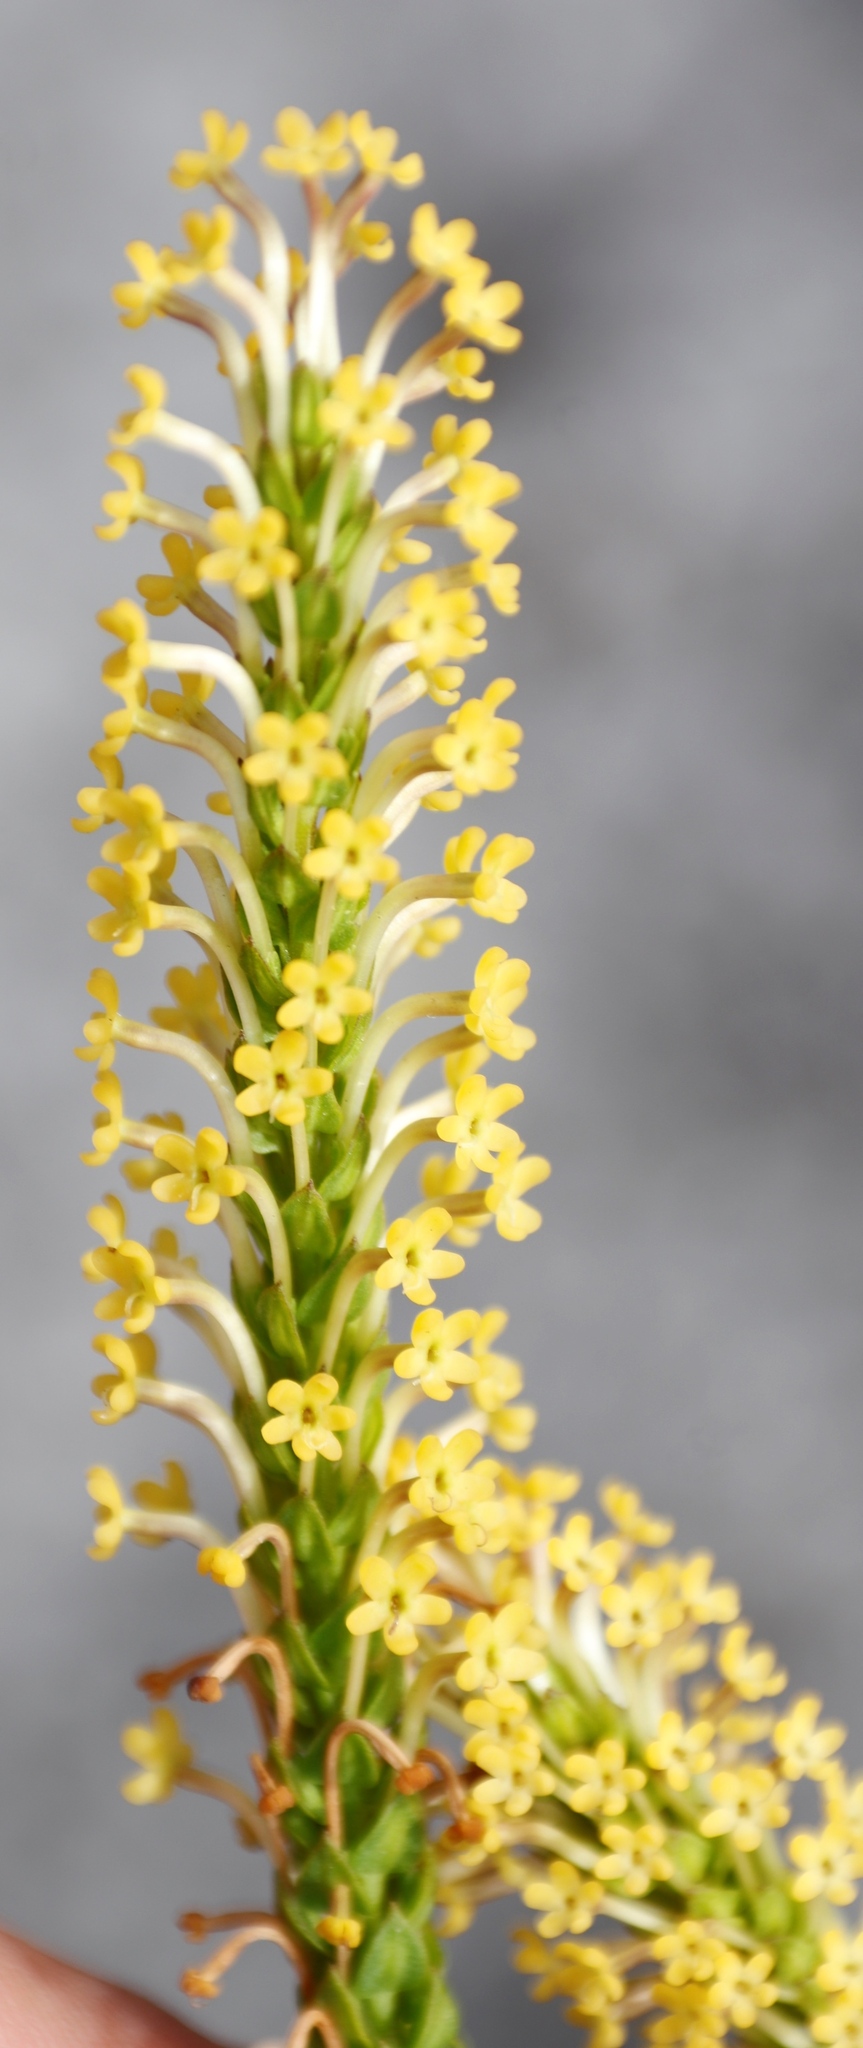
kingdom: Plantae
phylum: Tracheophyta
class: Magnoliopsida
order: Lamiales
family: Scrophulariaceae
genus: Microdon
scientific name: Microdon dubius
